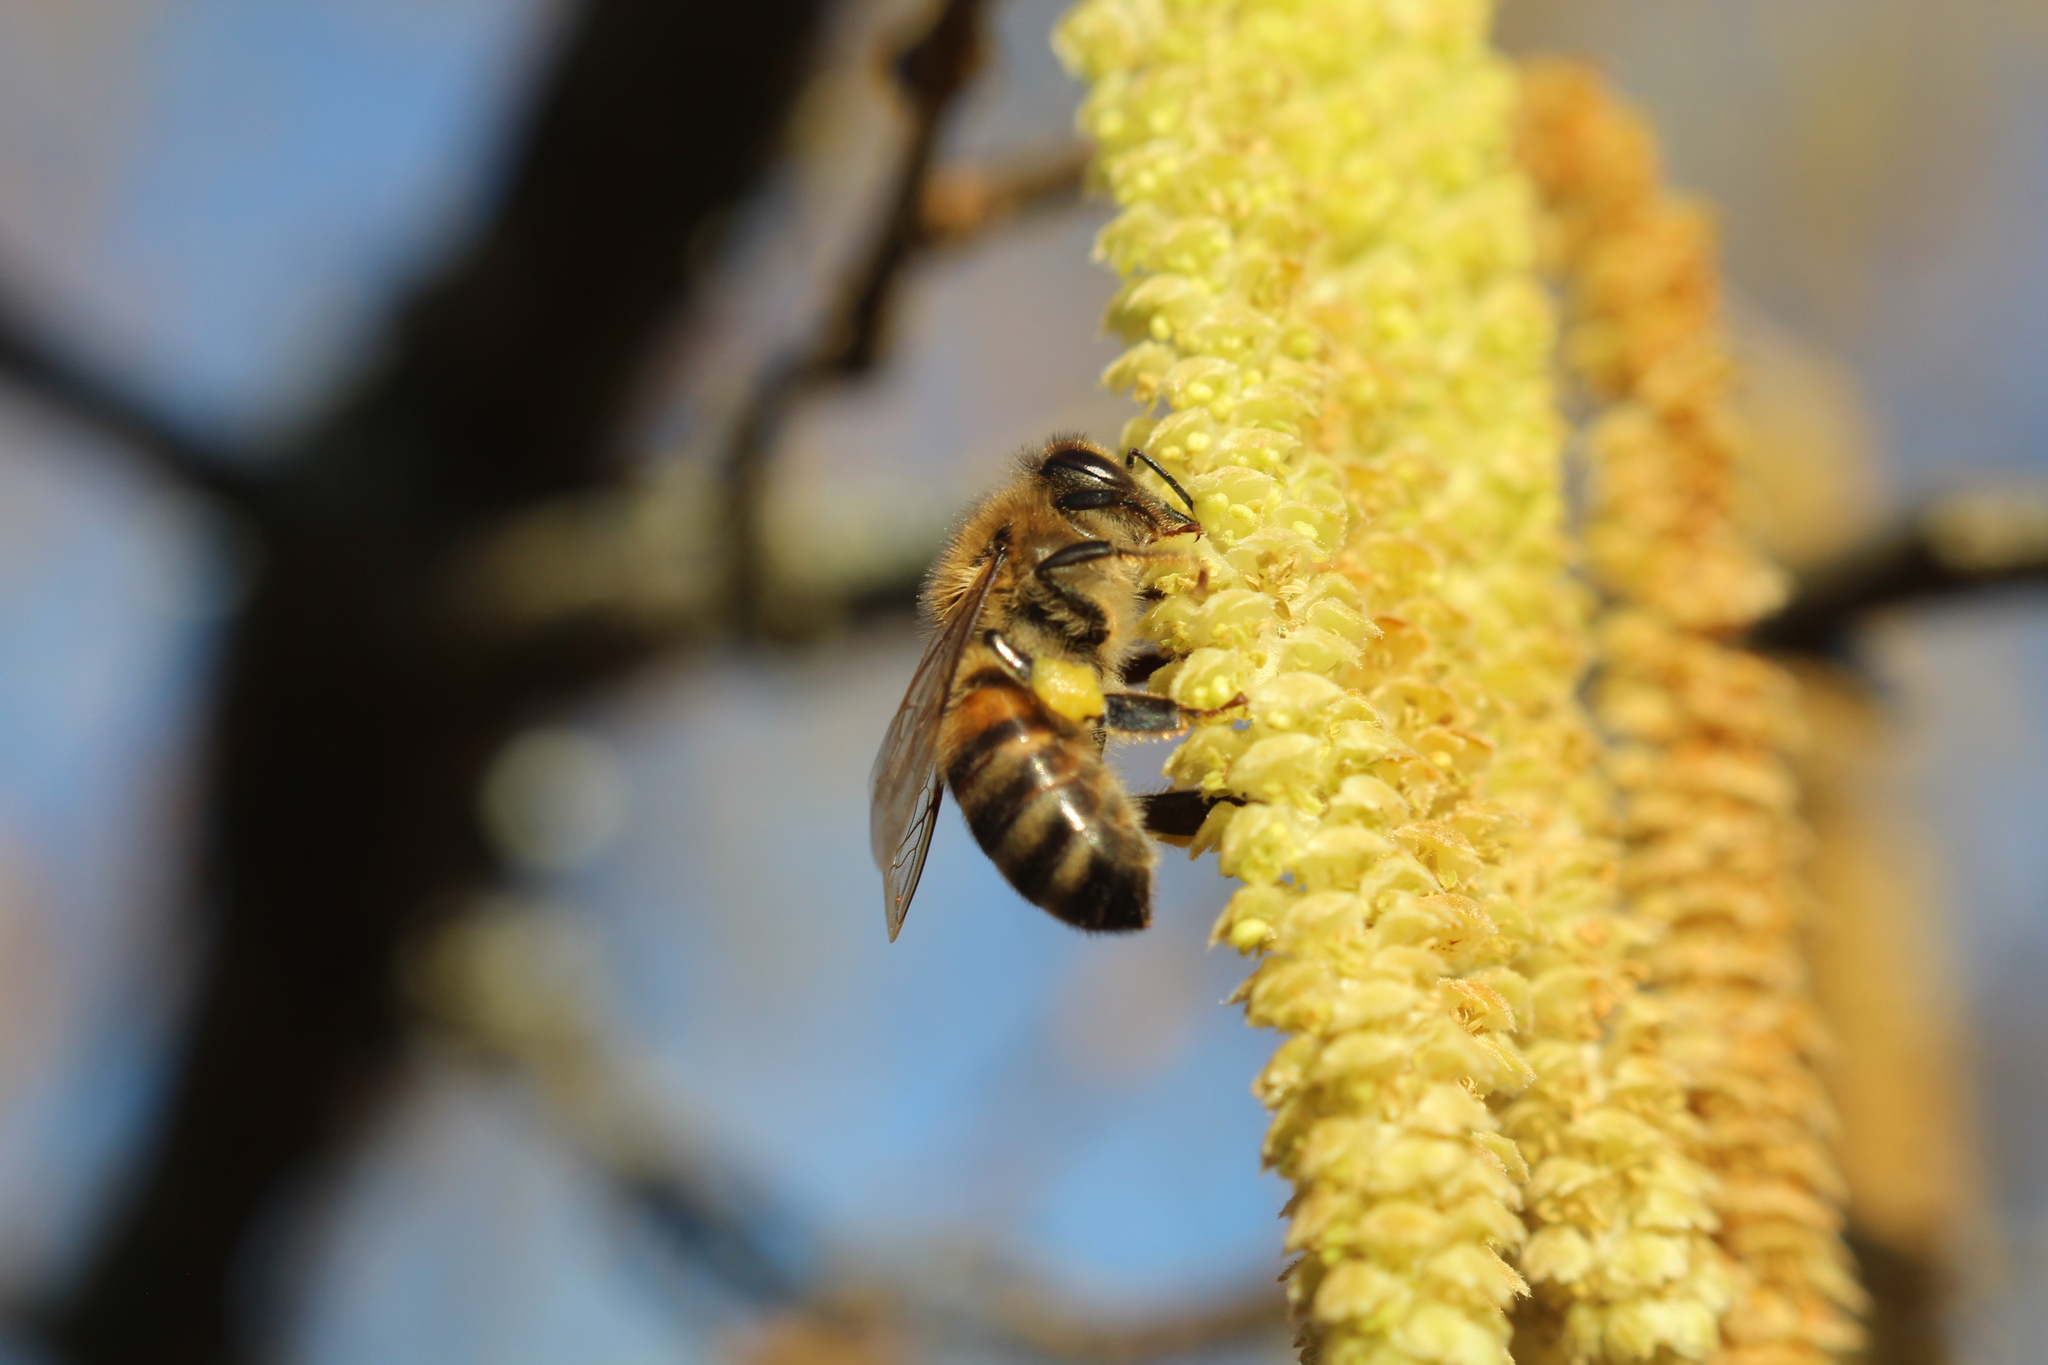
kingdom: Animalia
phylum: Arthropoda
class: Insecta
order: Hymenoptera
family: Apidae
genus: Apis
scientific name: Apis mellifera
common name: Honey bee
